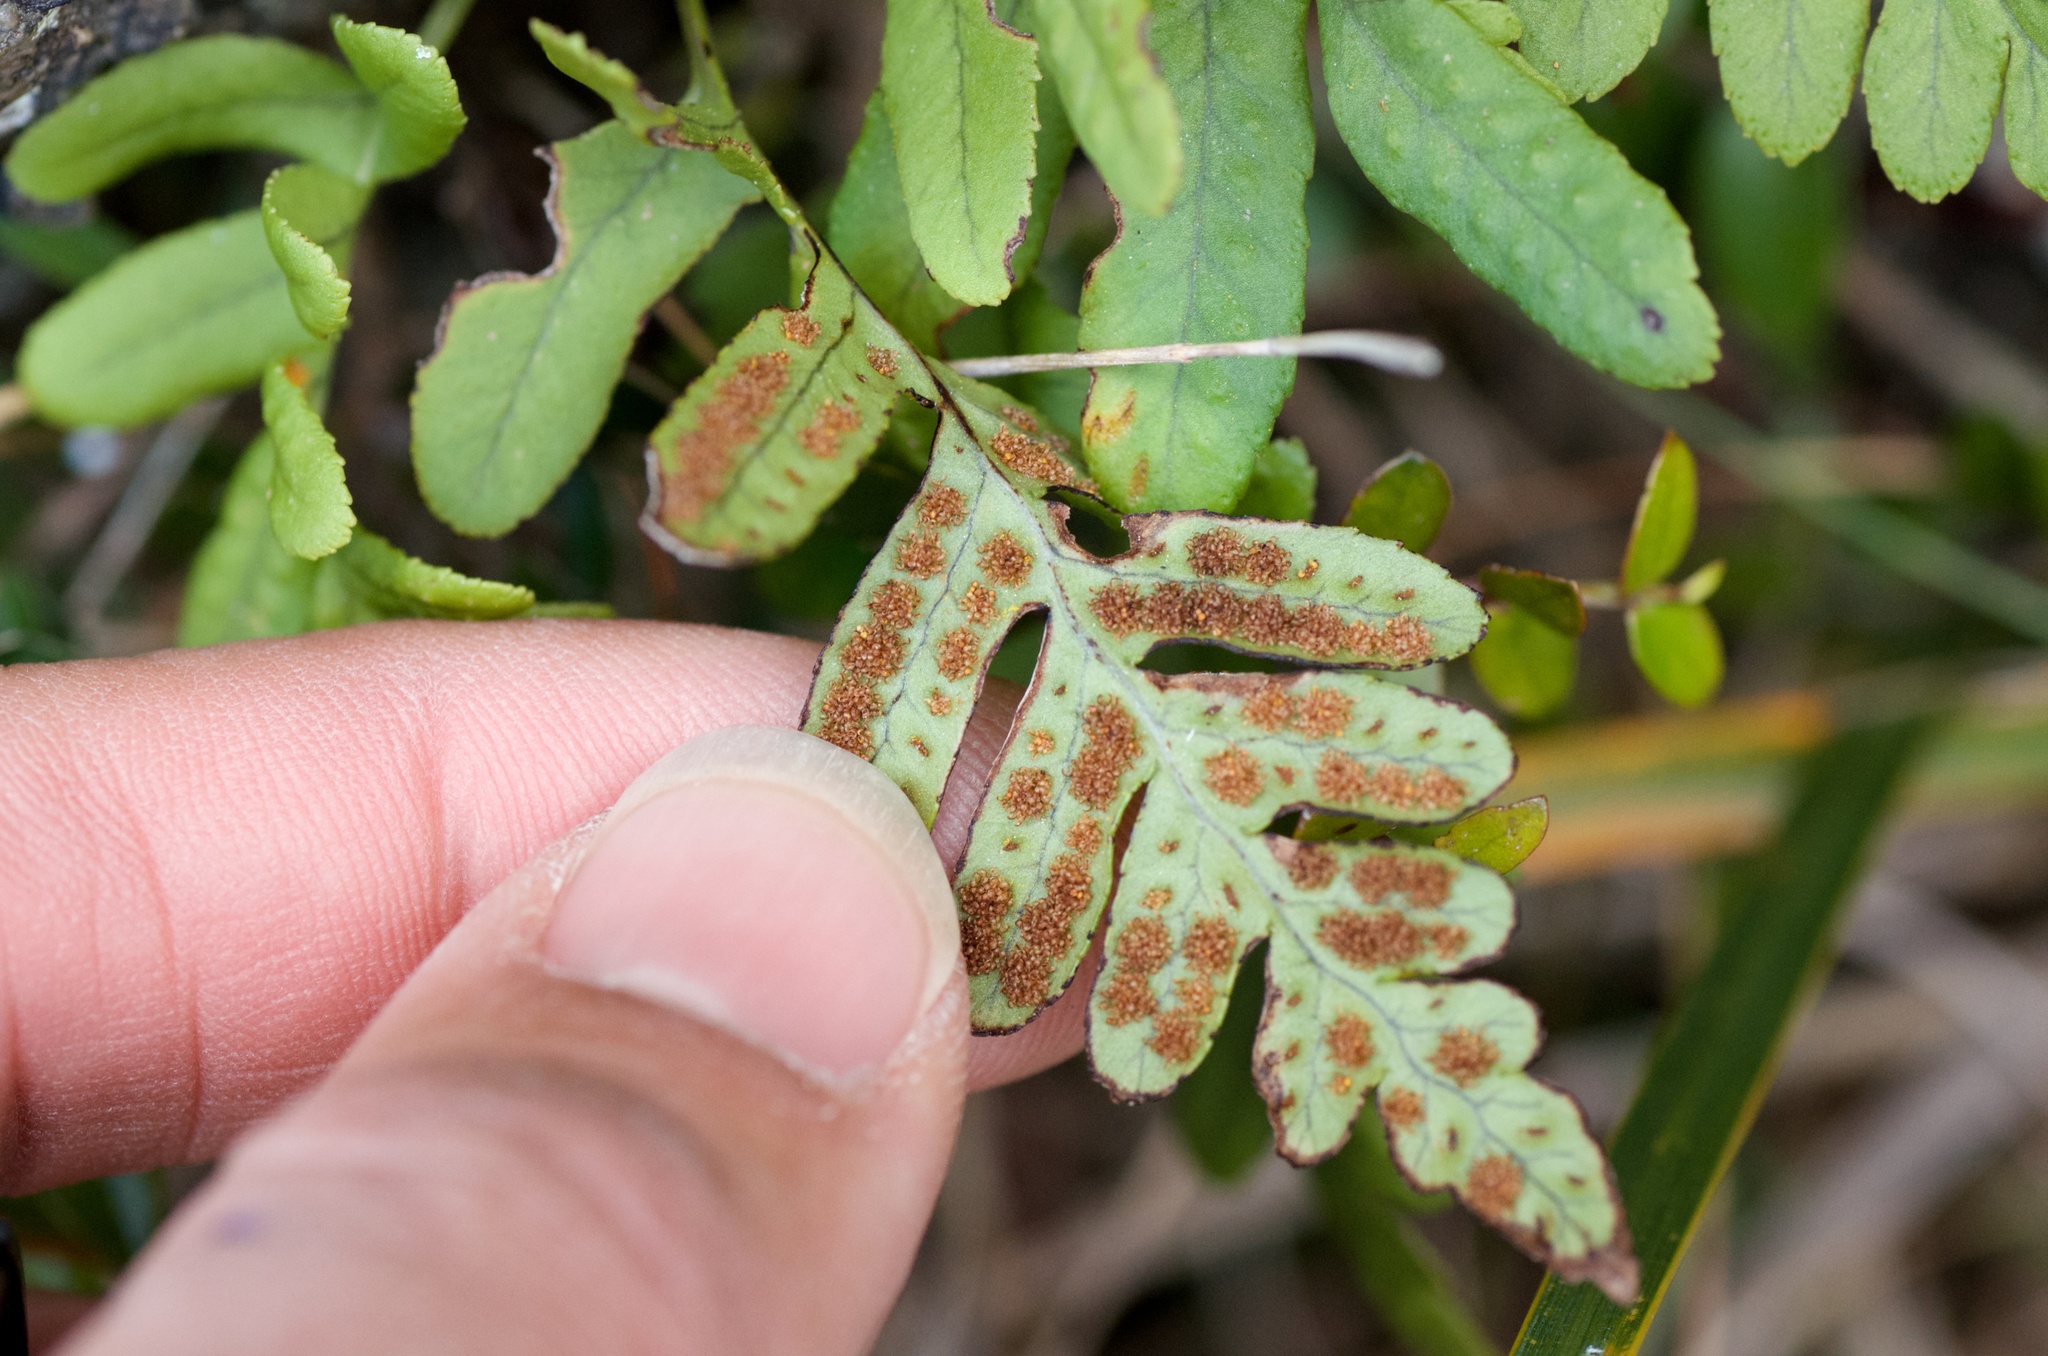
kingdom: Plantae
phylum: Tracheophyta
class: Polypodiopsida
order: Polypodiales
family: Polypodiaceae
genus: Polypodium
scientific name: Polypodium vulgare
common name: Common polypody
